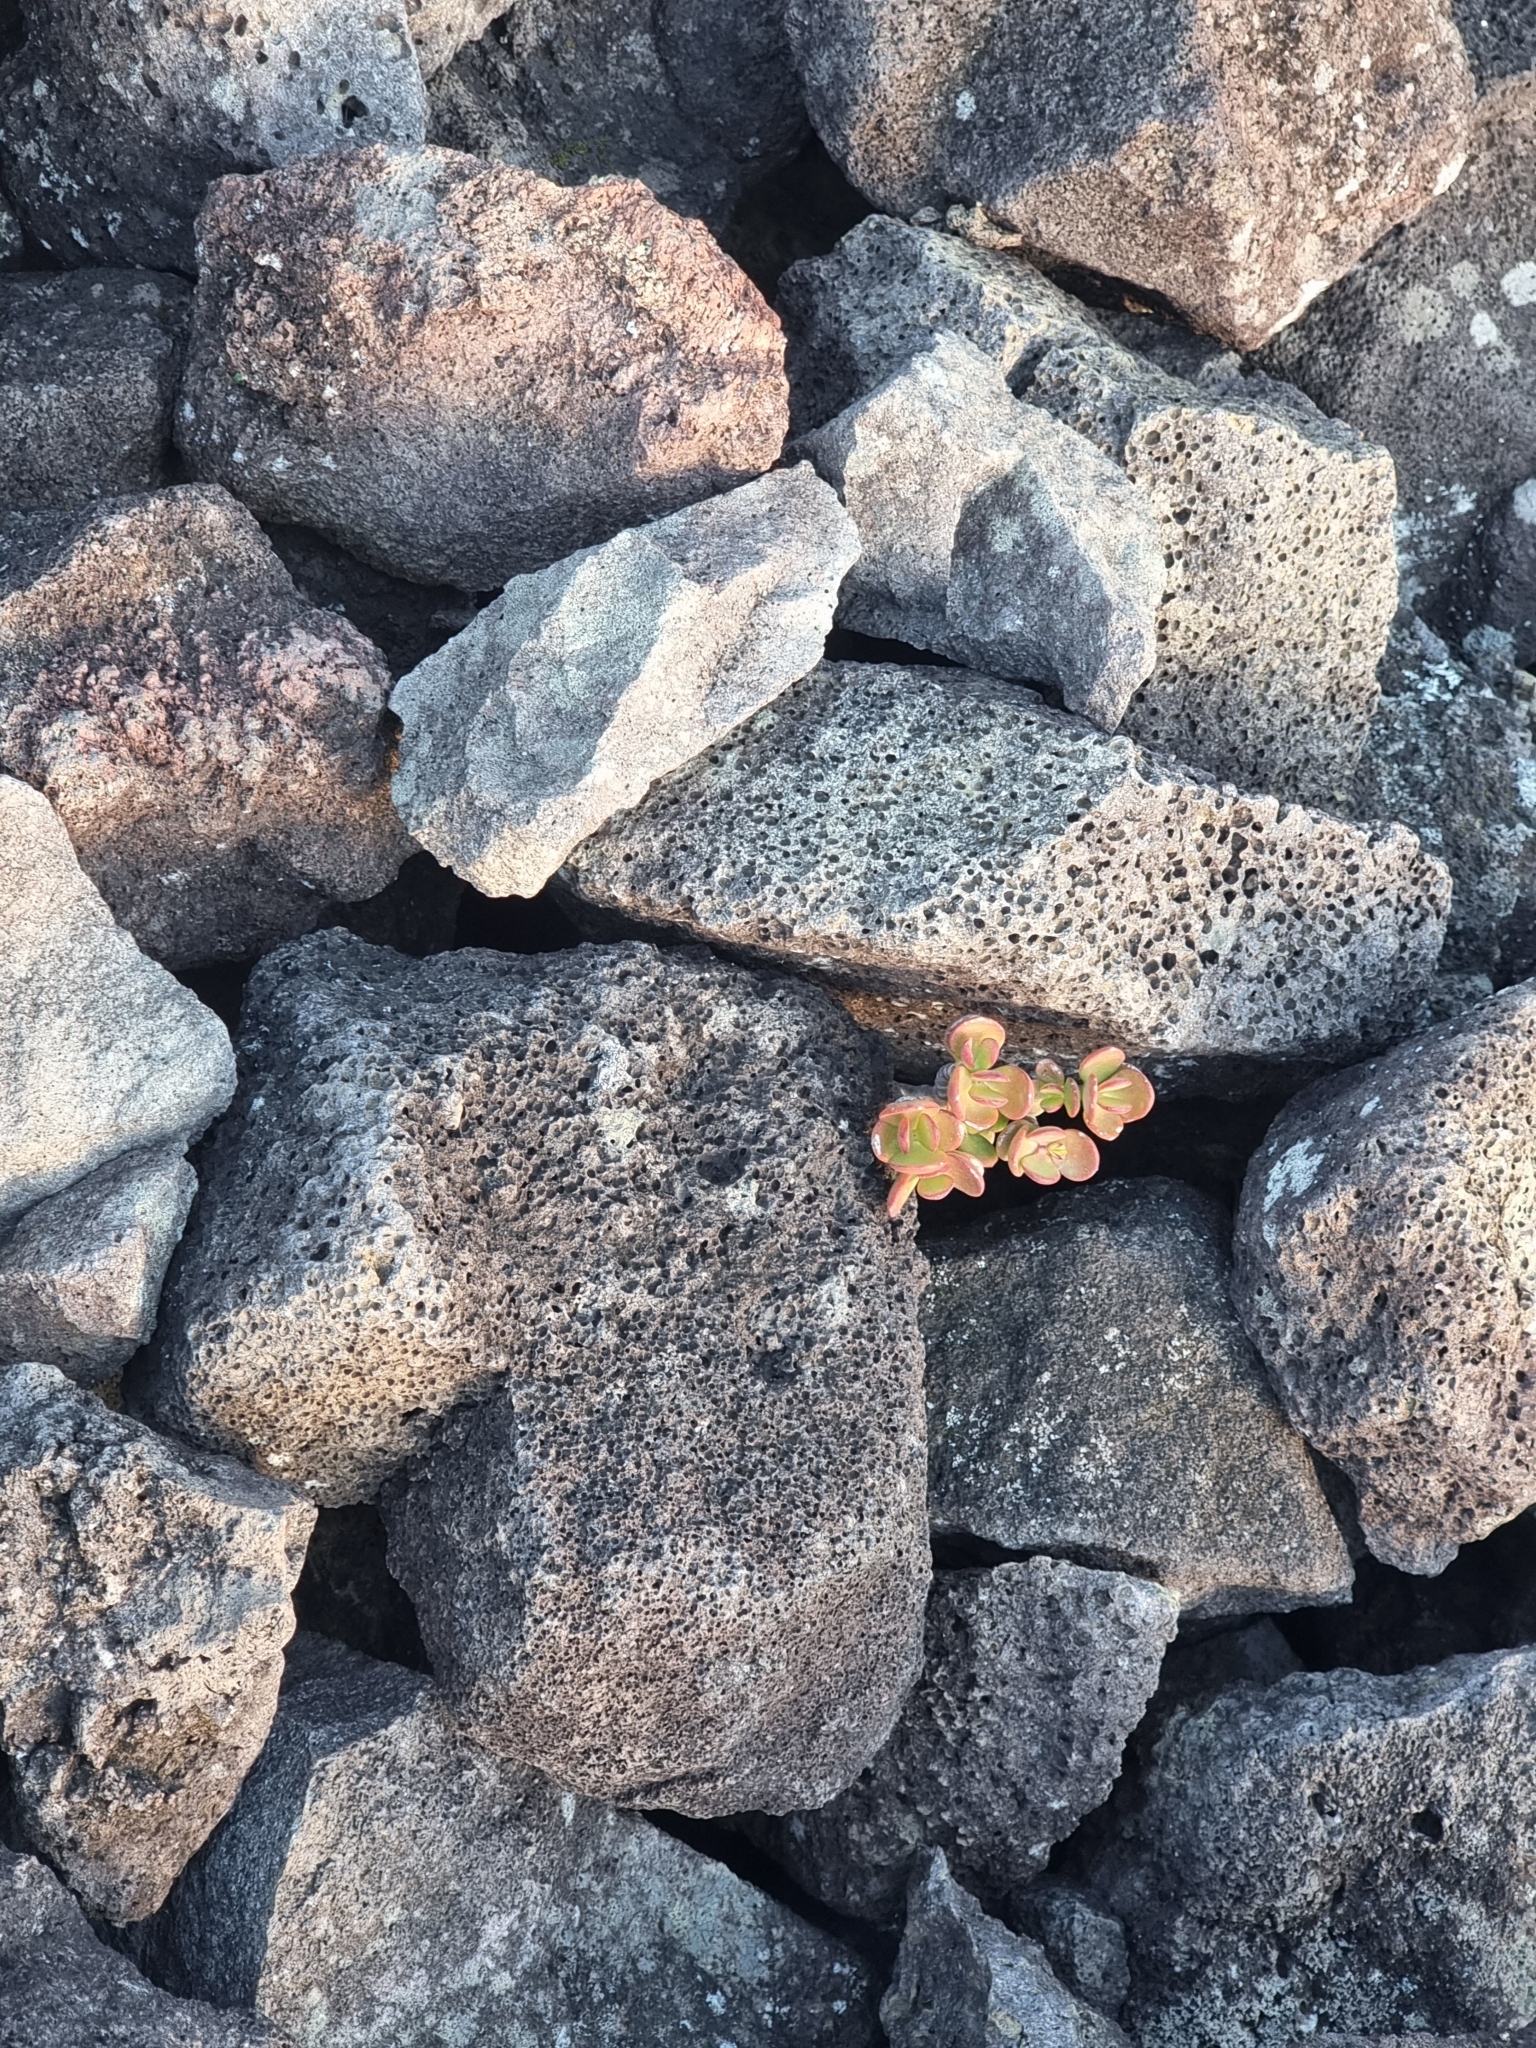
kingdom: Plantae
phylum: Tracheophyta
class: Magnoliopsida
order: Saxifragales
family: Crassulaceae
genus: Crassula
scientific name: Crassula ovata
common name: Jade plant
